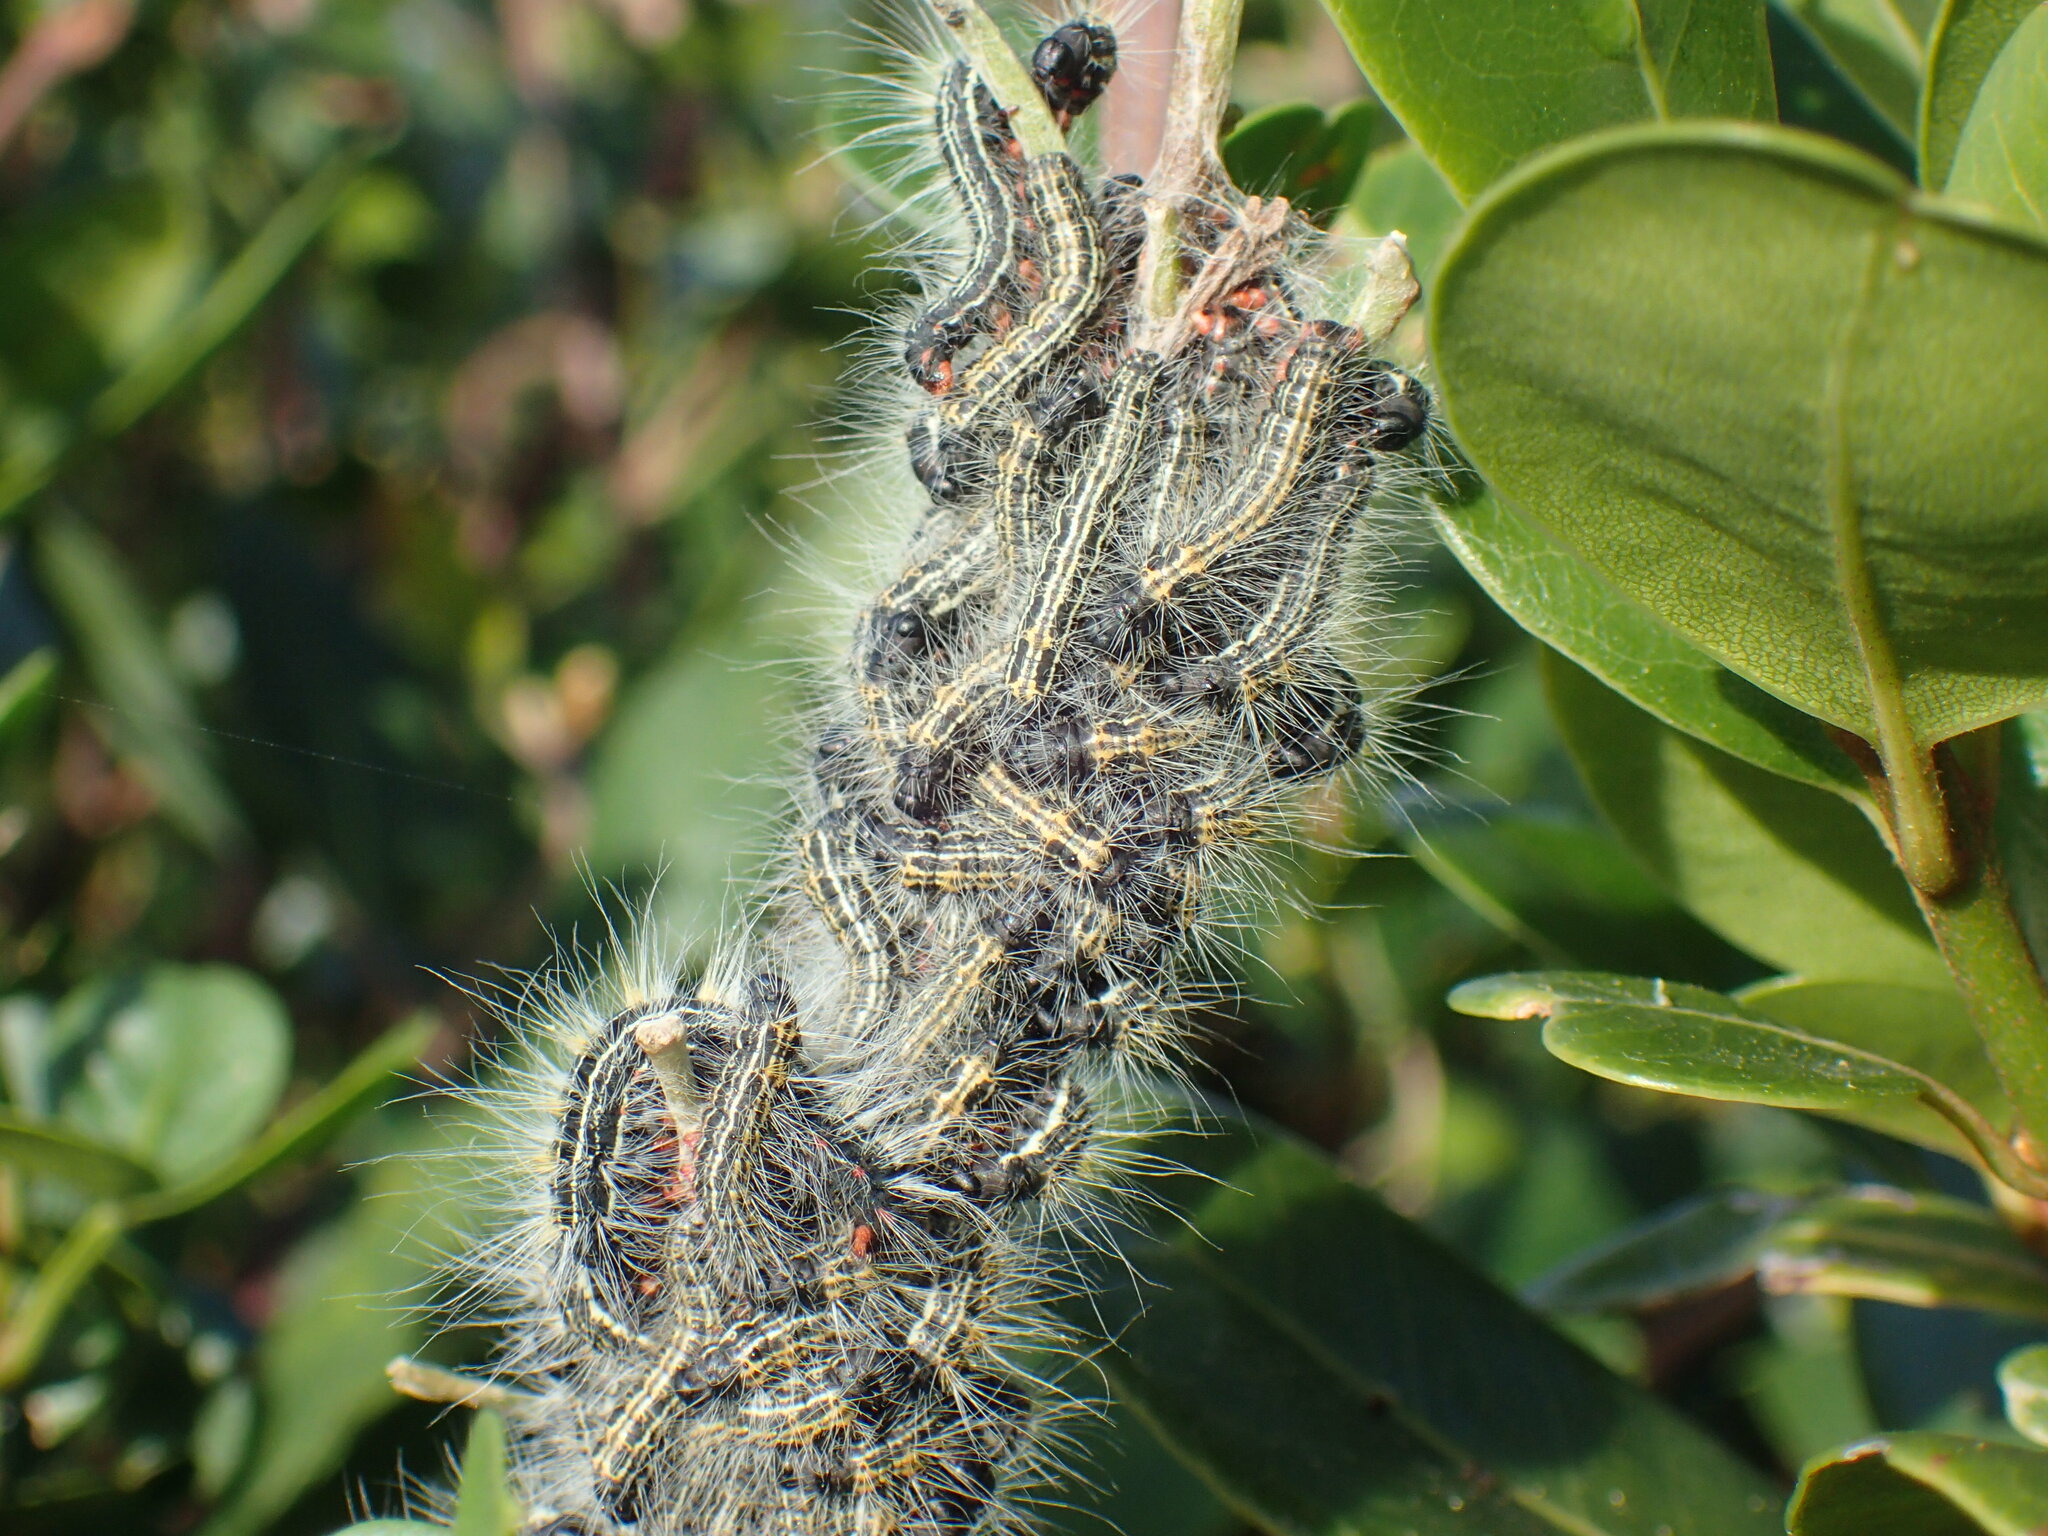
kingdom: Animalia
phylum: Arthropoda
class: Insecta
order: Lepidoptera
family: Lasiocampidae
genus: Bombycomorpha
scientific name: Bombycomorpha bifascia
